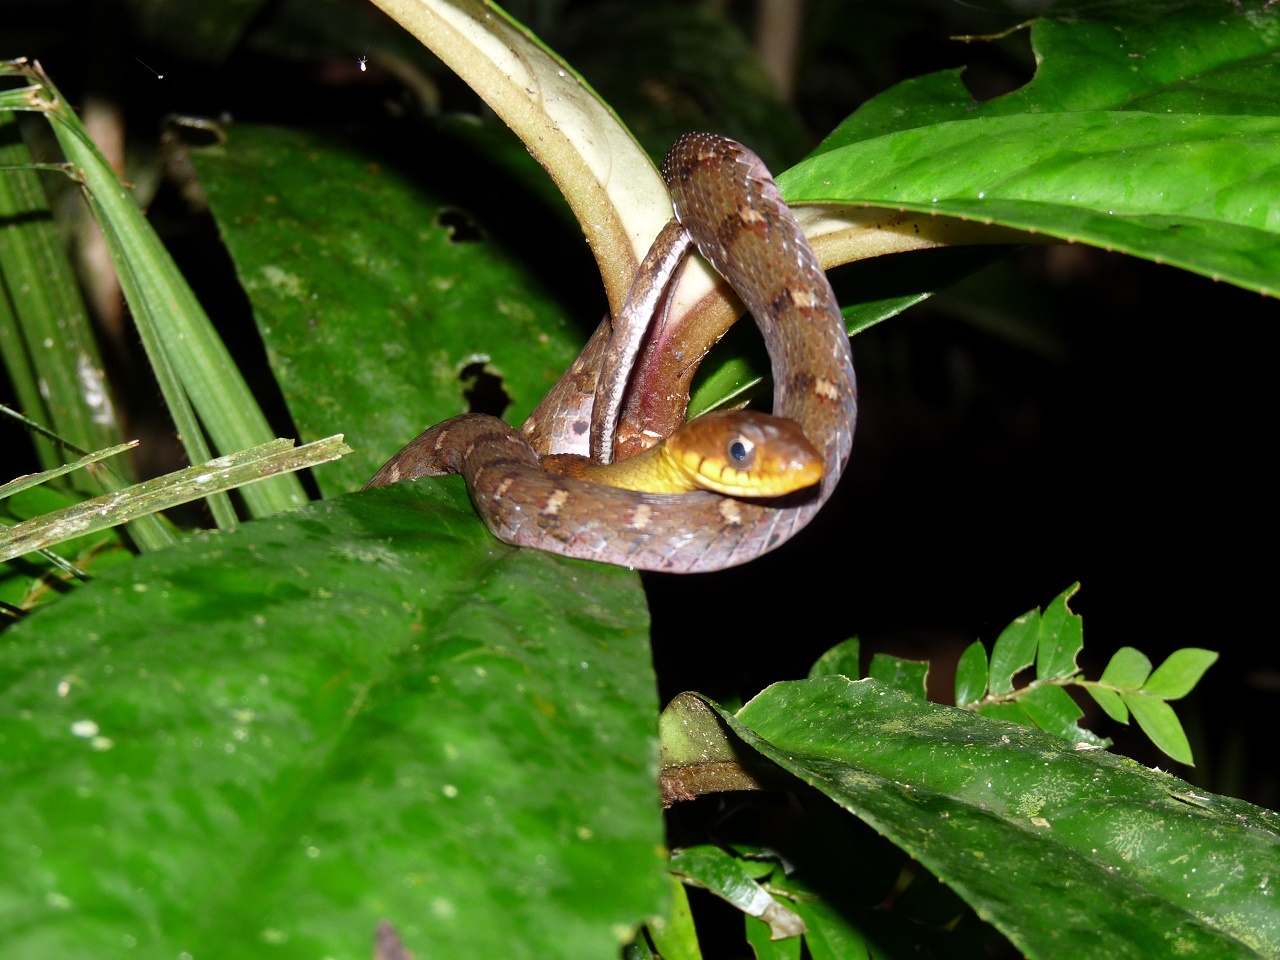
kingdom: Animalia
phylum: Chordata
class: Squamata
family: Colubridae
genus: Rhabdophis
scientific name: Rhabdophis chrysargos
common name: Specklebelly keelback
